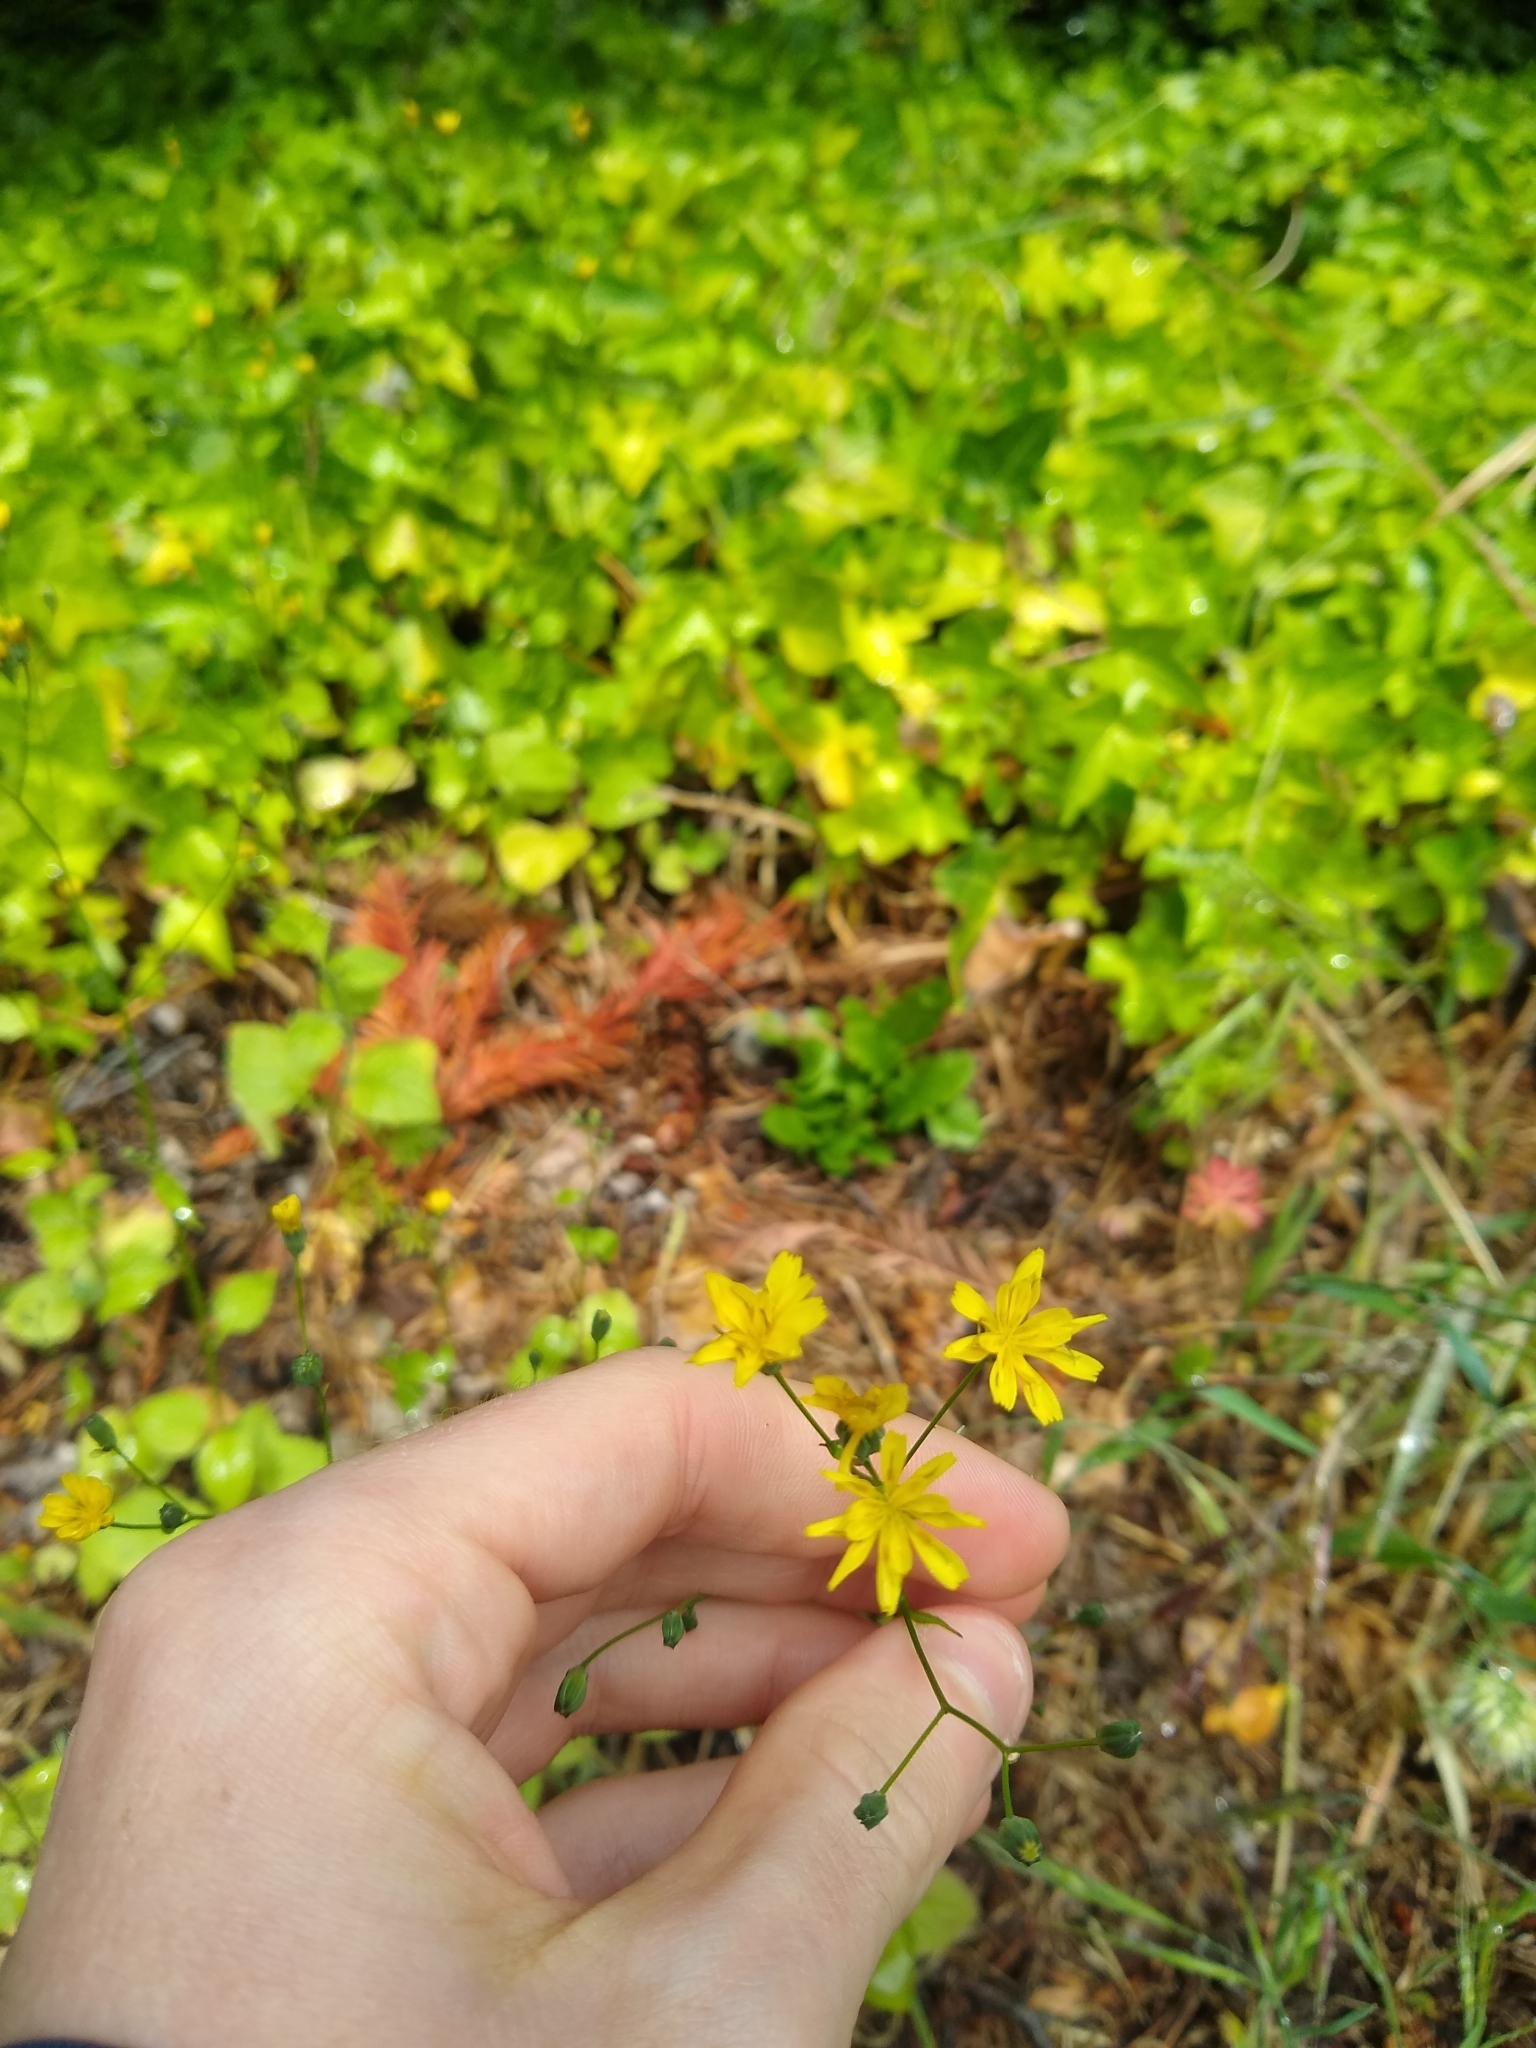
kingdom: Plantae
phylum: Tracheophyta
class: Magnoliopsida
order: Asterales
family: Asteraceae
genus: Lapsana
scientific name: Lapsana communis
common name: Nipplewort
